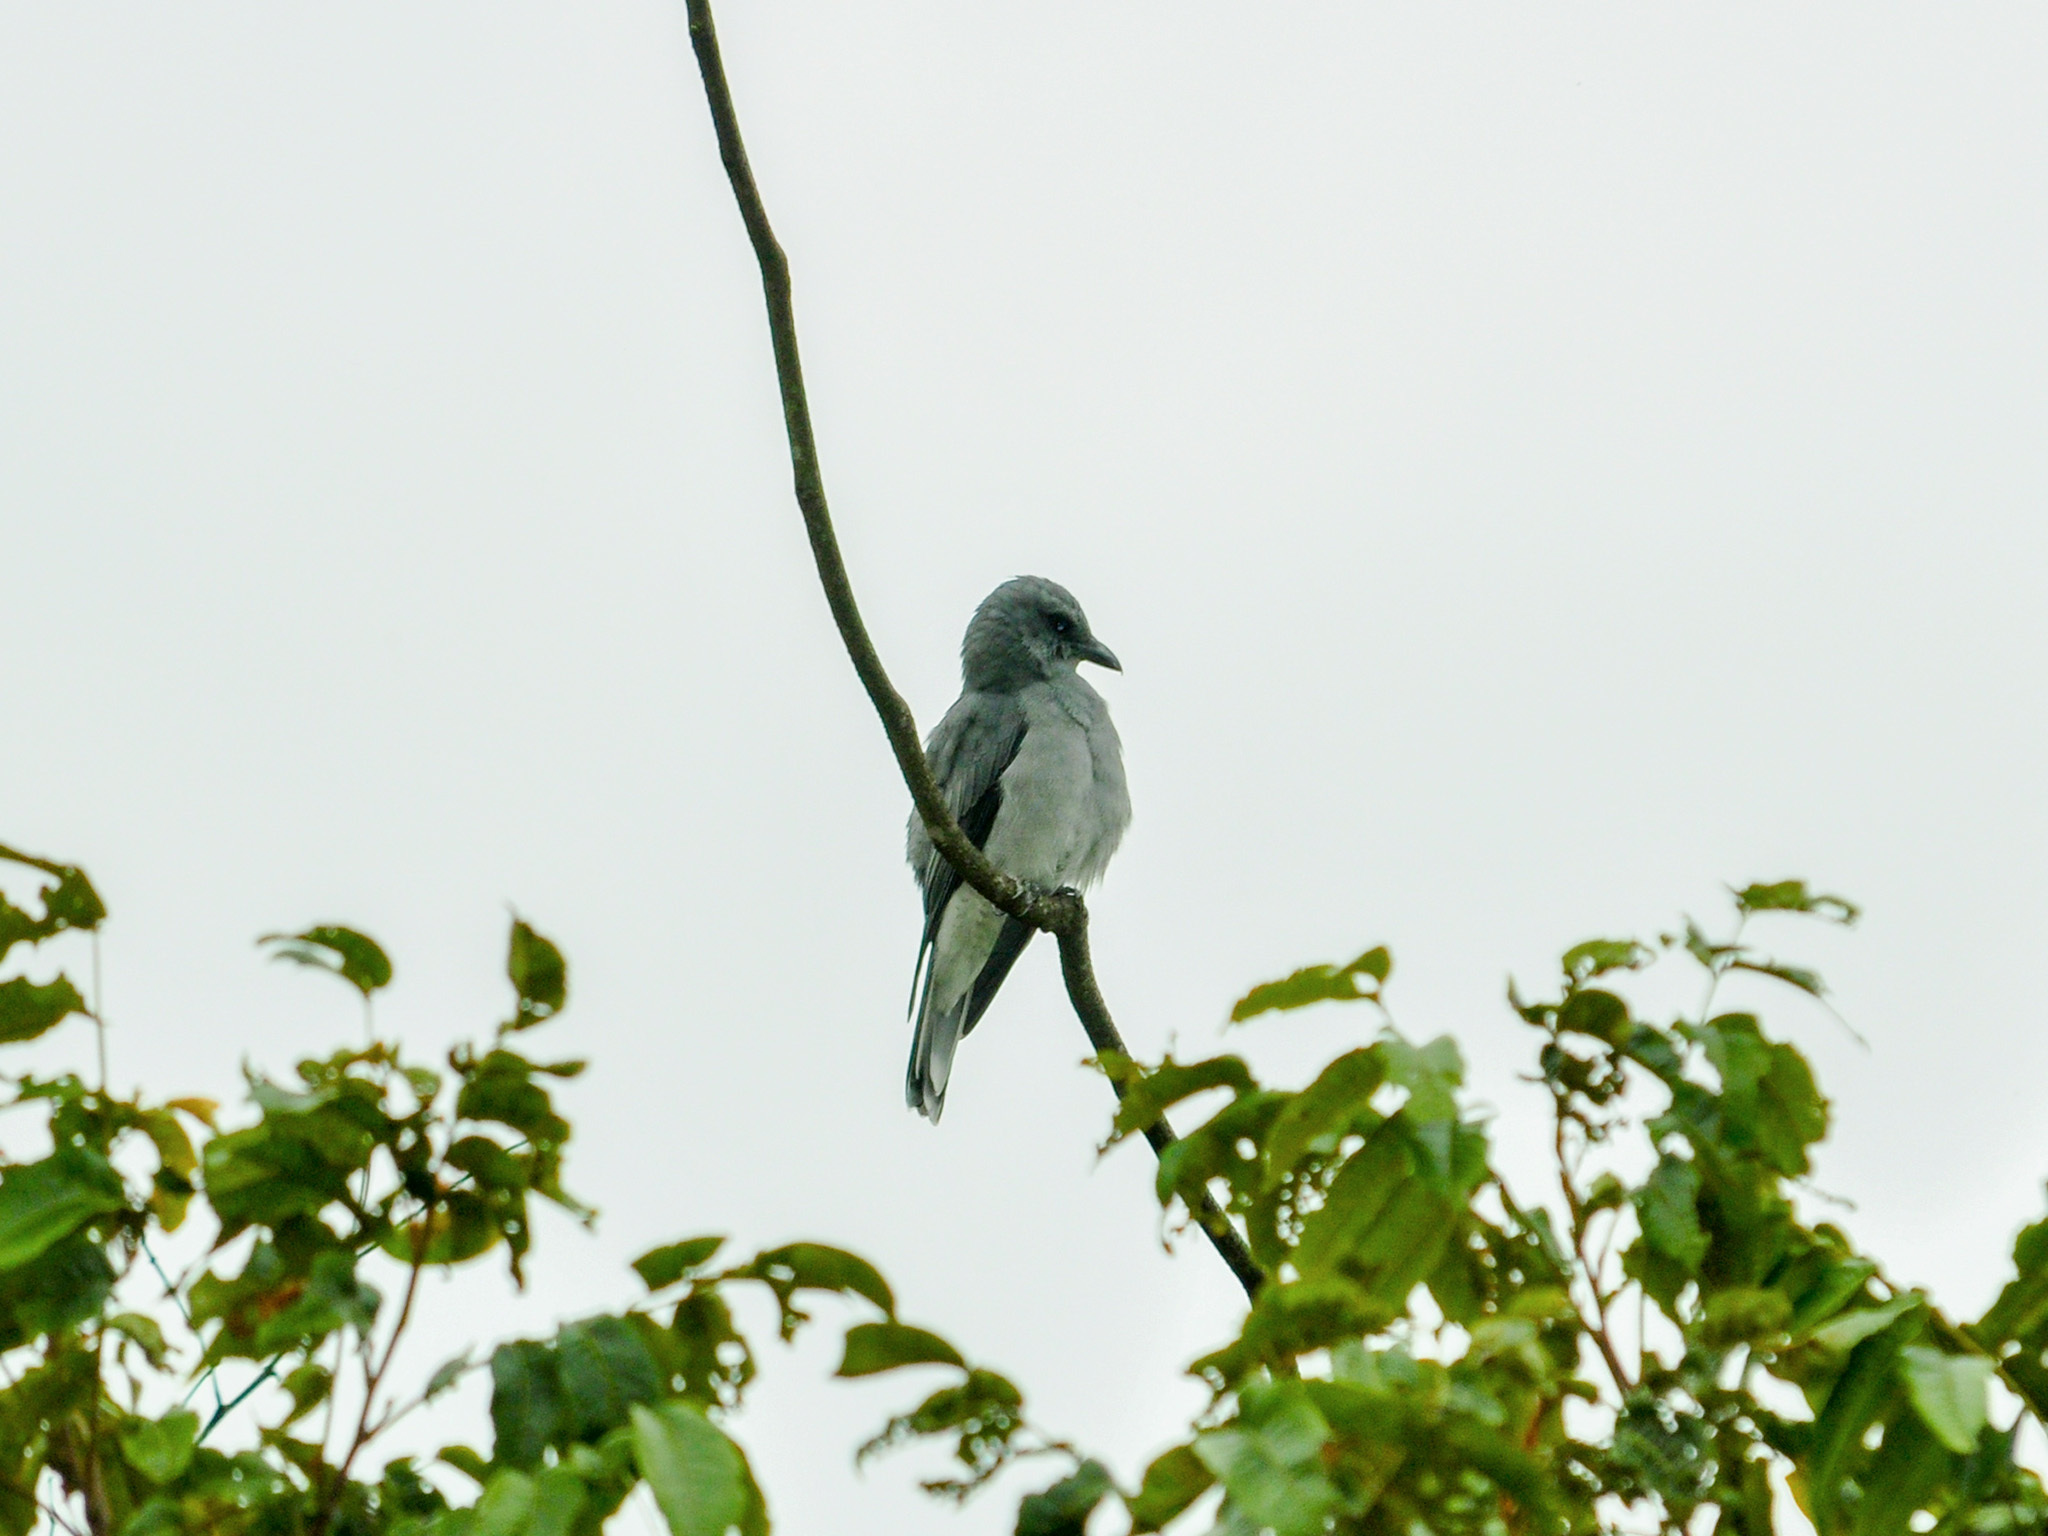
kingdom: Animalia
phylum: Chordata
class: Aves
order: Passeriformes
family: Campephagidae
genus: Coracina
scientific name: Coracina macei
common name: Large cuckooshrike
